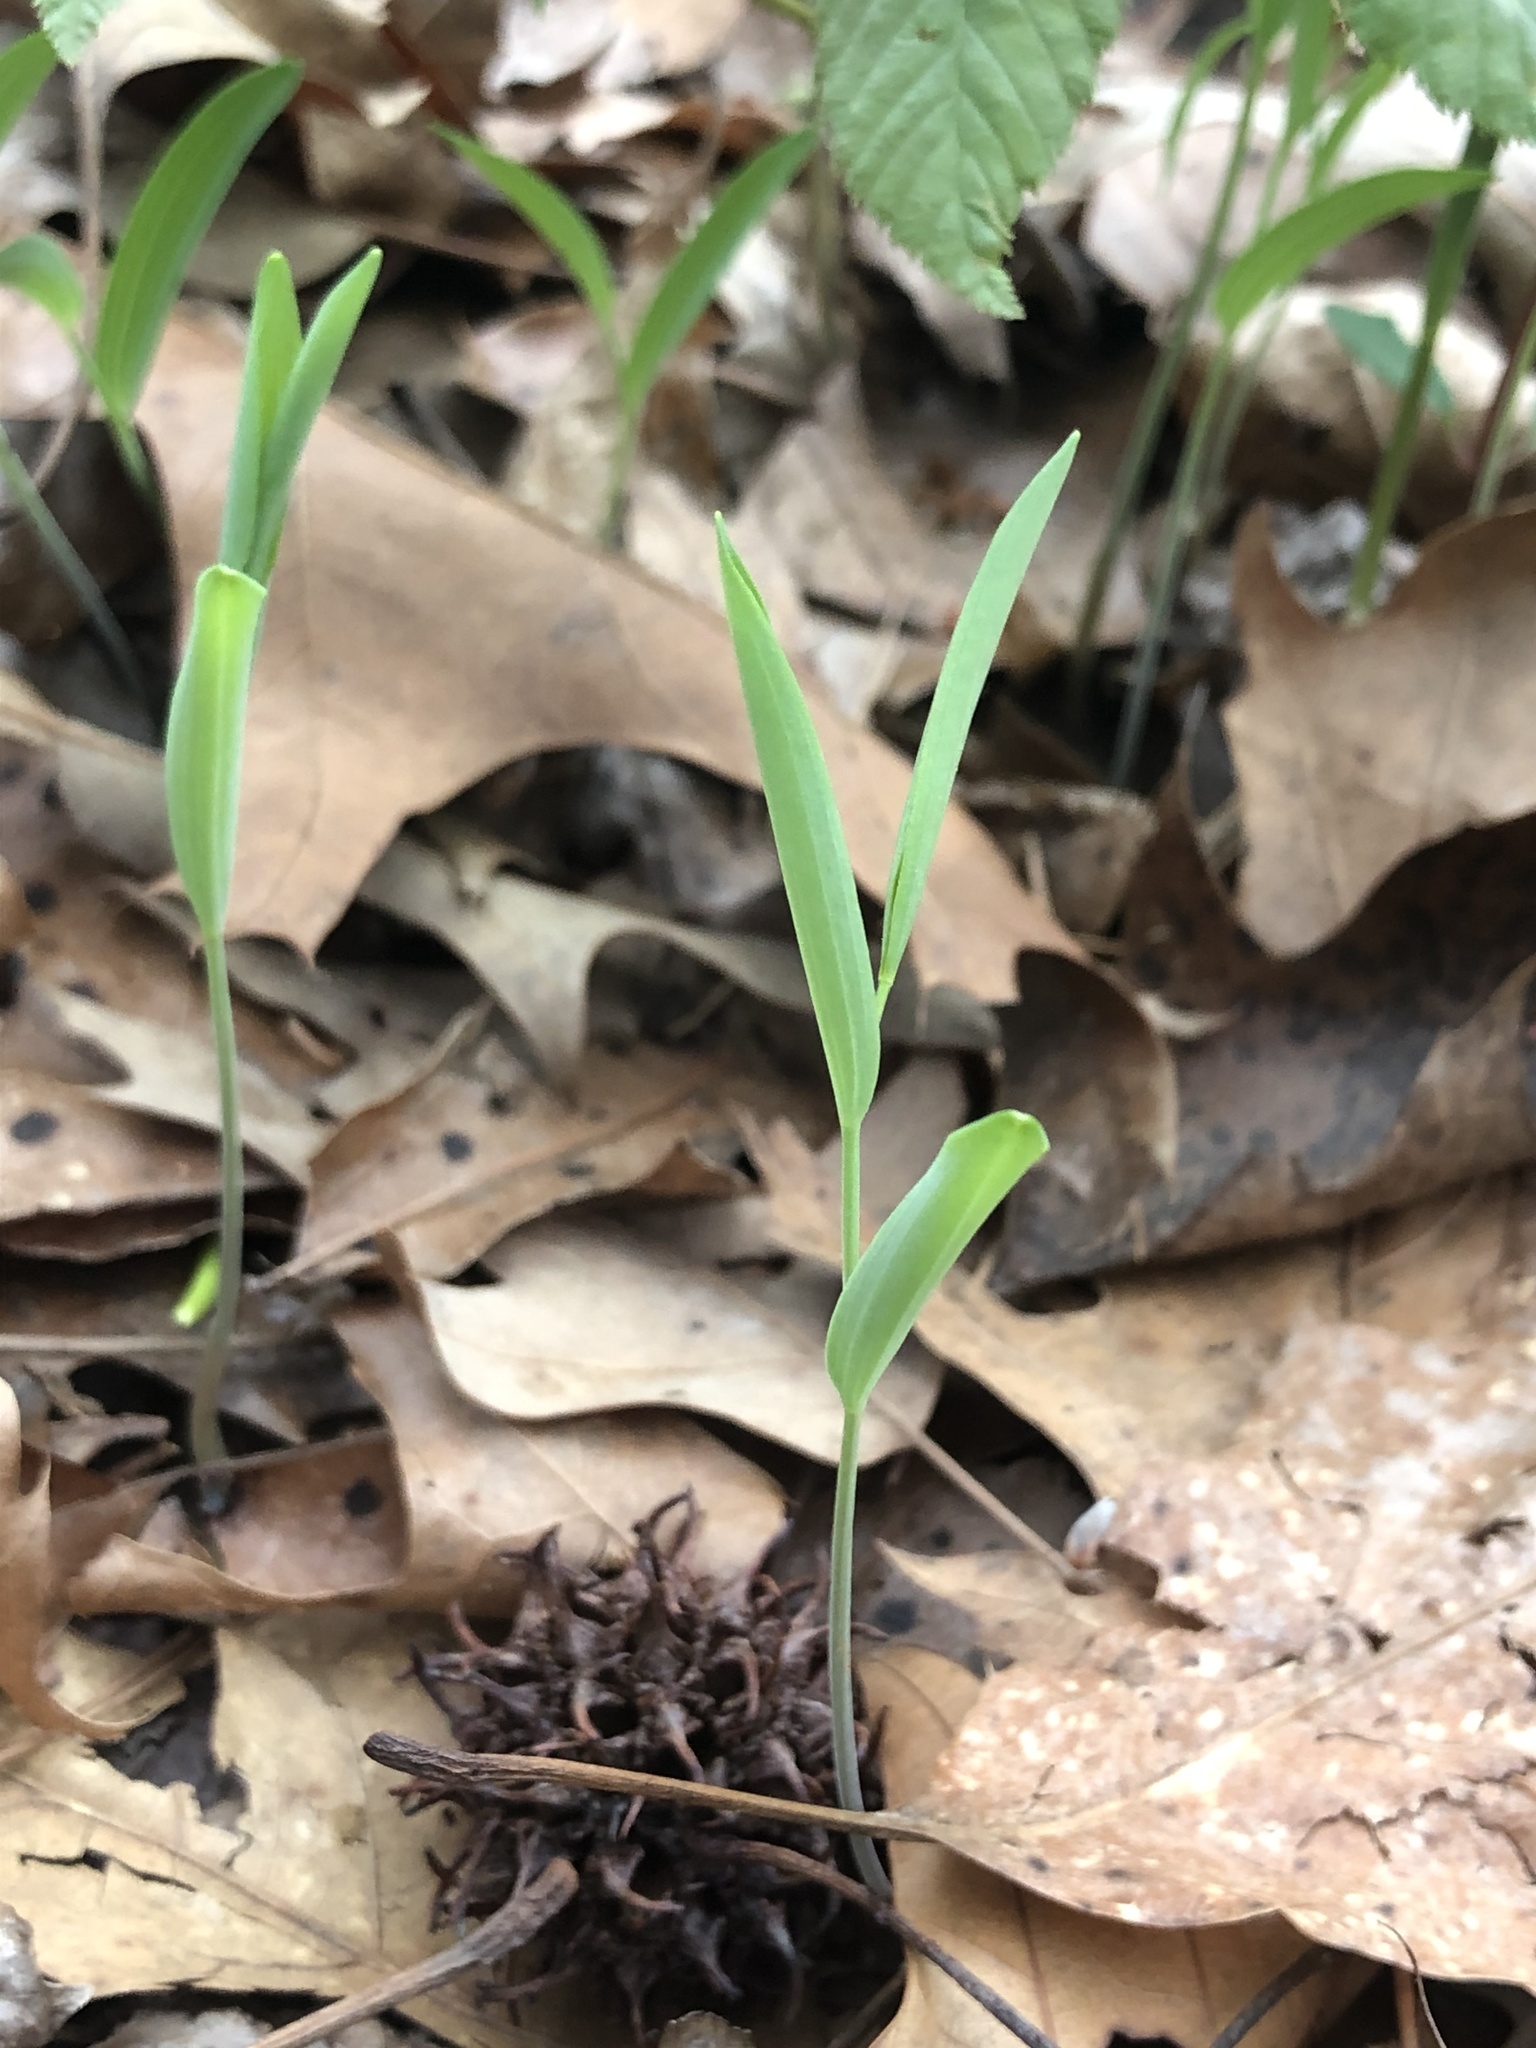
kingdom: Plantae
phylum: Tracheophyta
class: Liliopsida
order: Asparagales
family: Asparagaceae
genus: Polygonatum
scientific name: Polygonatum biflorum
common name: American solomon's-seal
